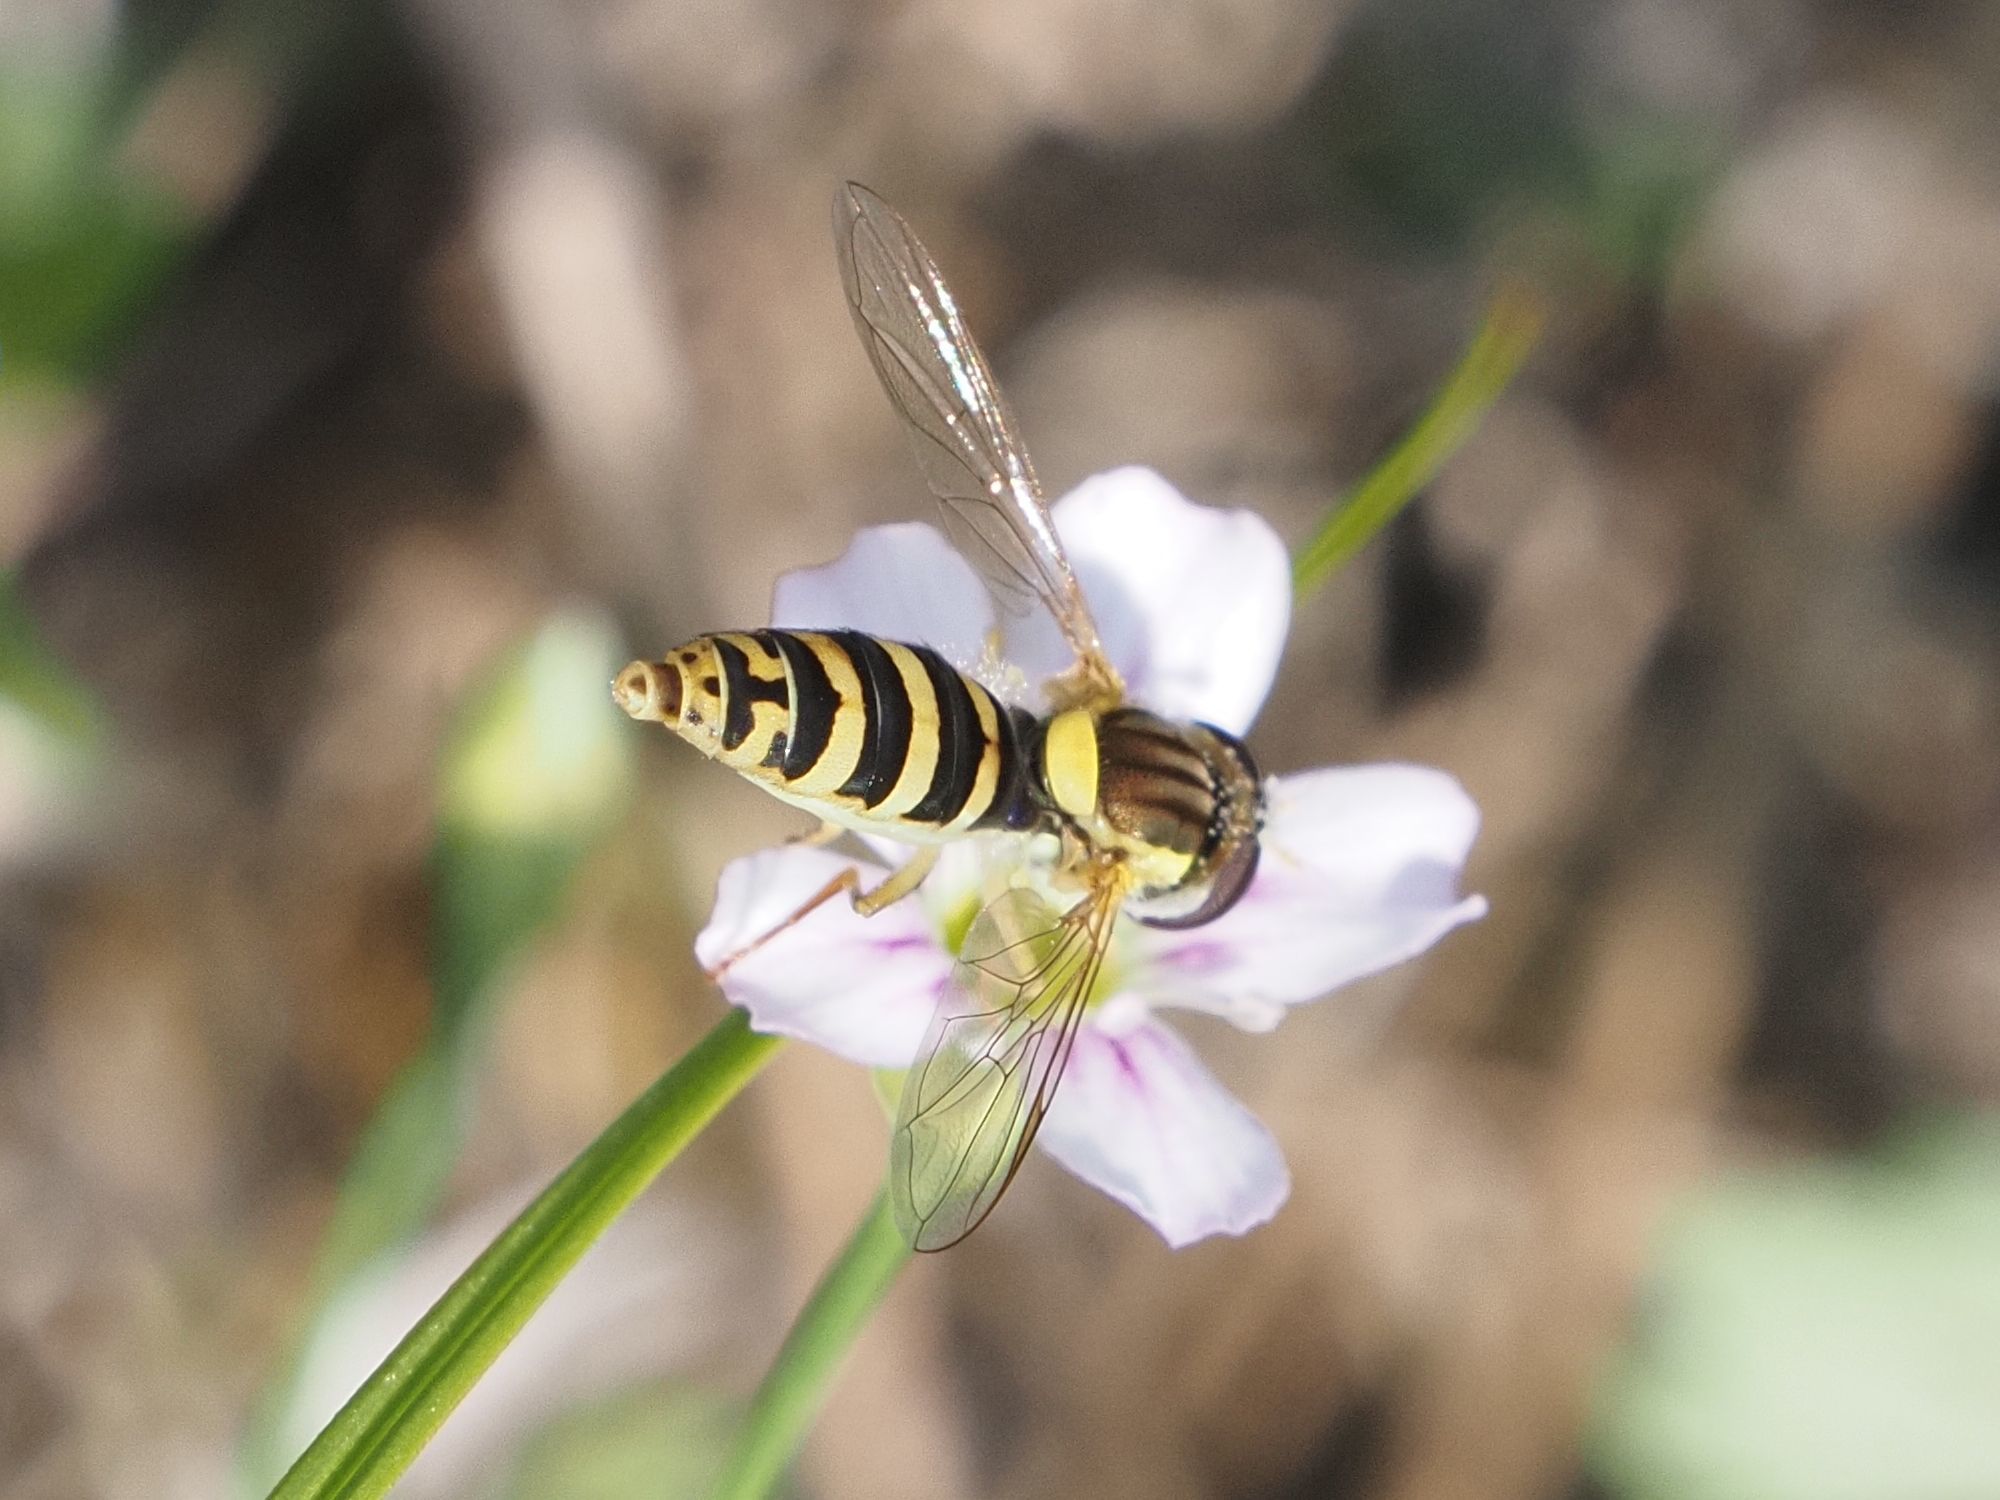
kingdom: Animalia
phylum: Arthropoda
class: Insecta
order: Diptera
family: Syrphidae
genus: Sphaerophoria
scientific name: Sphaerophoria
